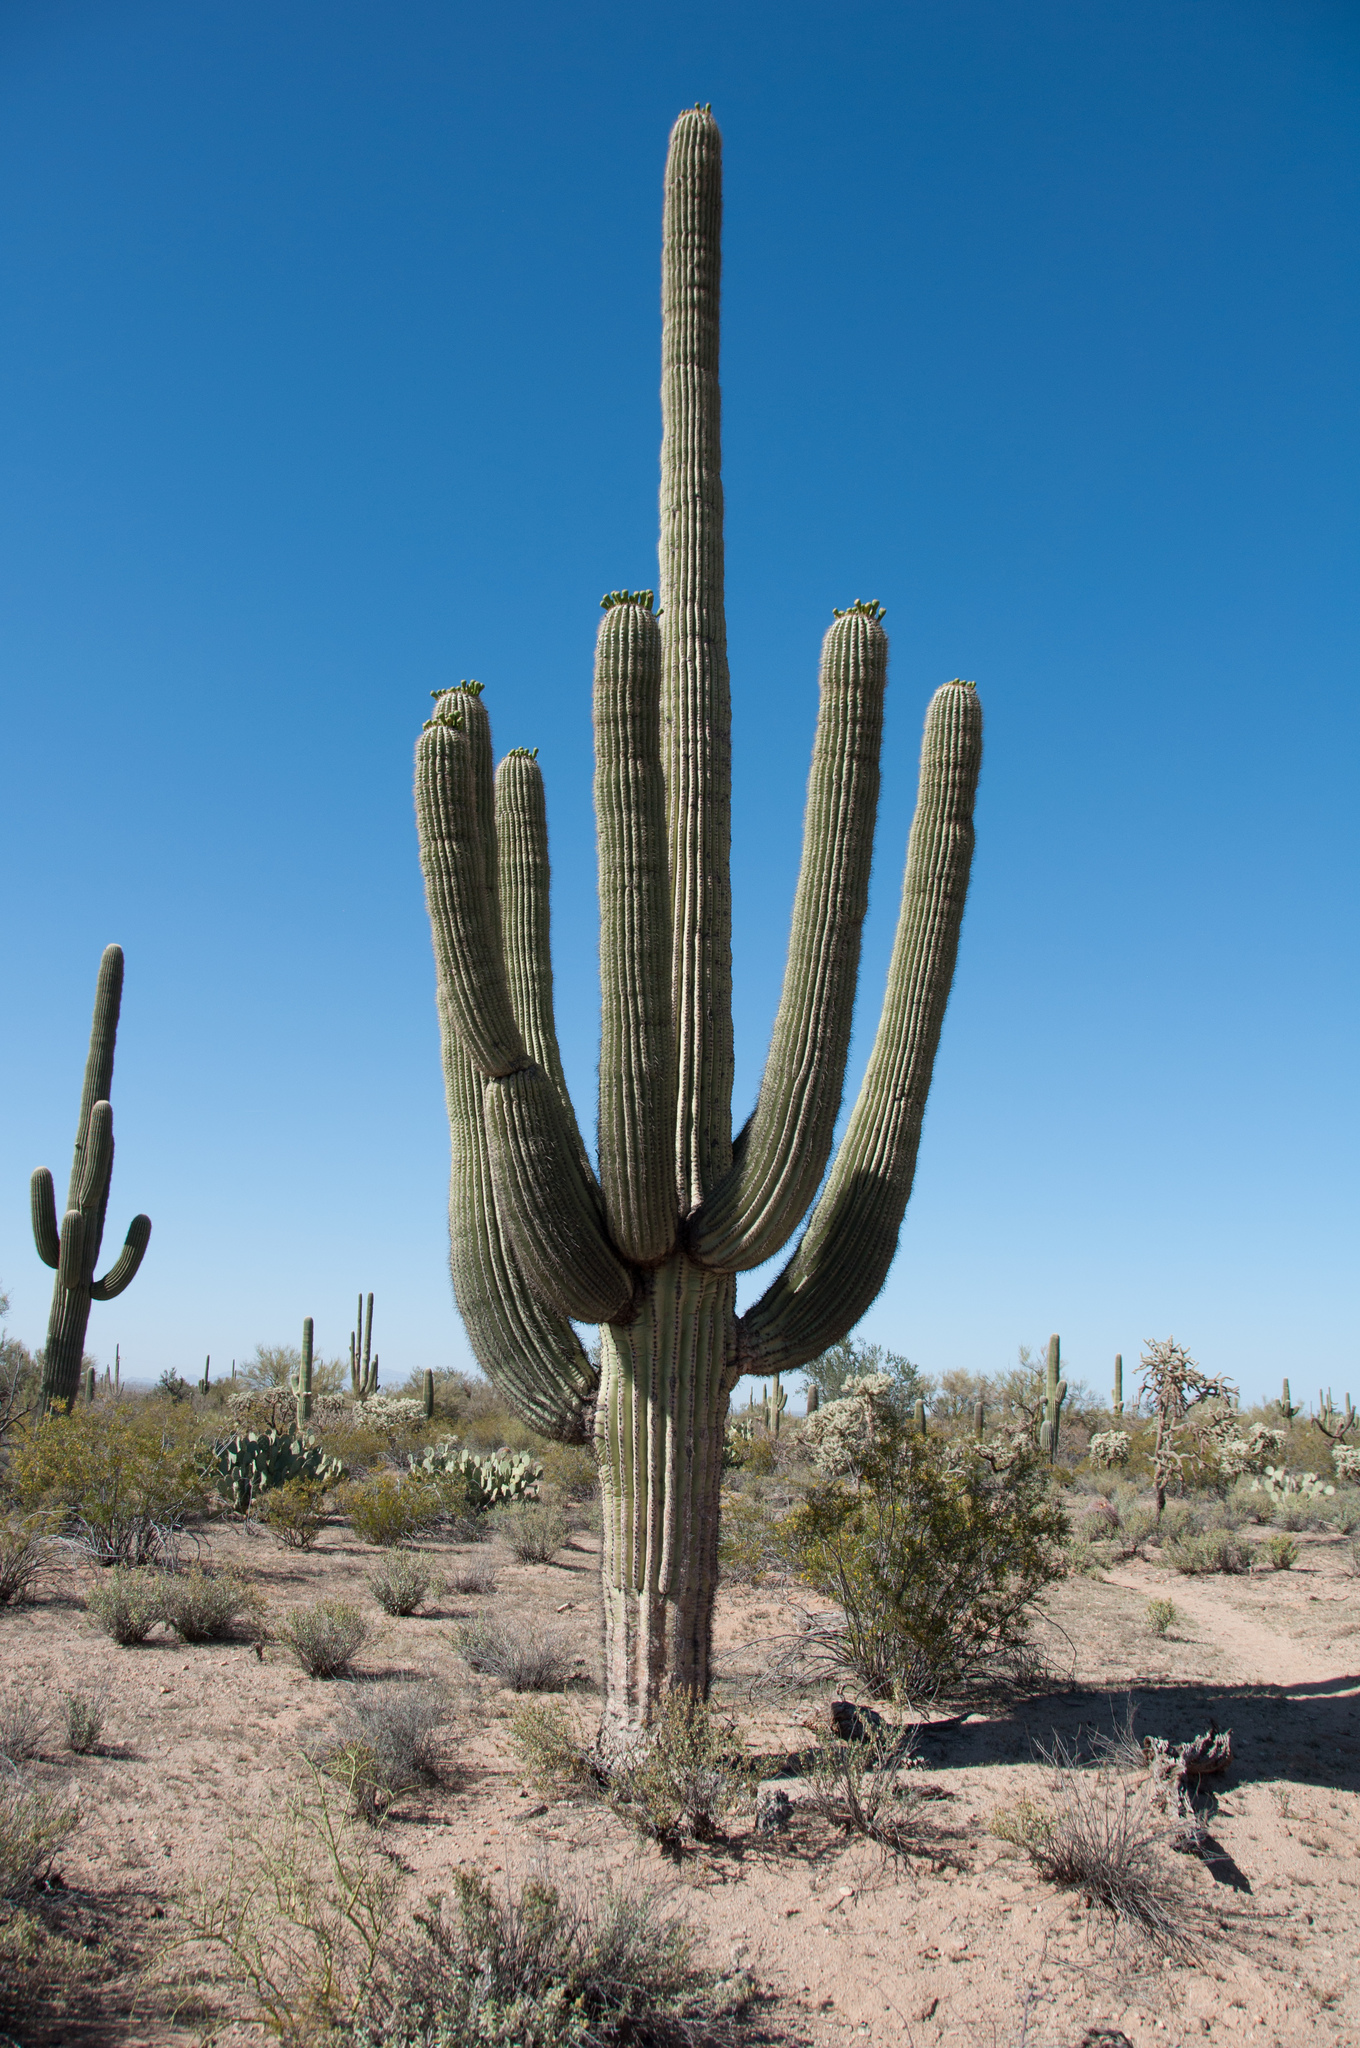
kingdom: Plantae
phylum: Tracheophyta
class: Magnoliopsida
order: Caryophyllales
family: Cactaceae
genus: Carnegiea
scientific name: Carnegiea gigantea
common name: Saguaro
